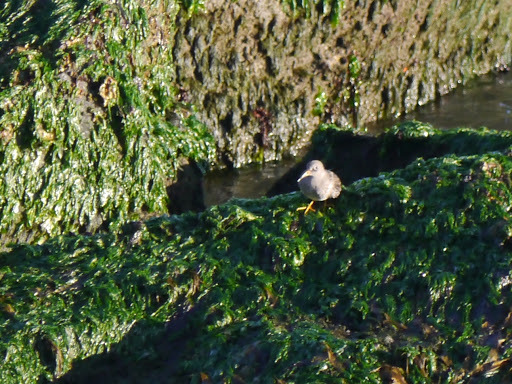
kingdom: Animalia
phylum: Chordata
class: Aves
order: Charadriiformes
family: Scolopacidae
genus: Calidris
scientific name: Calidris maritima
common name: Purple sandpiper
